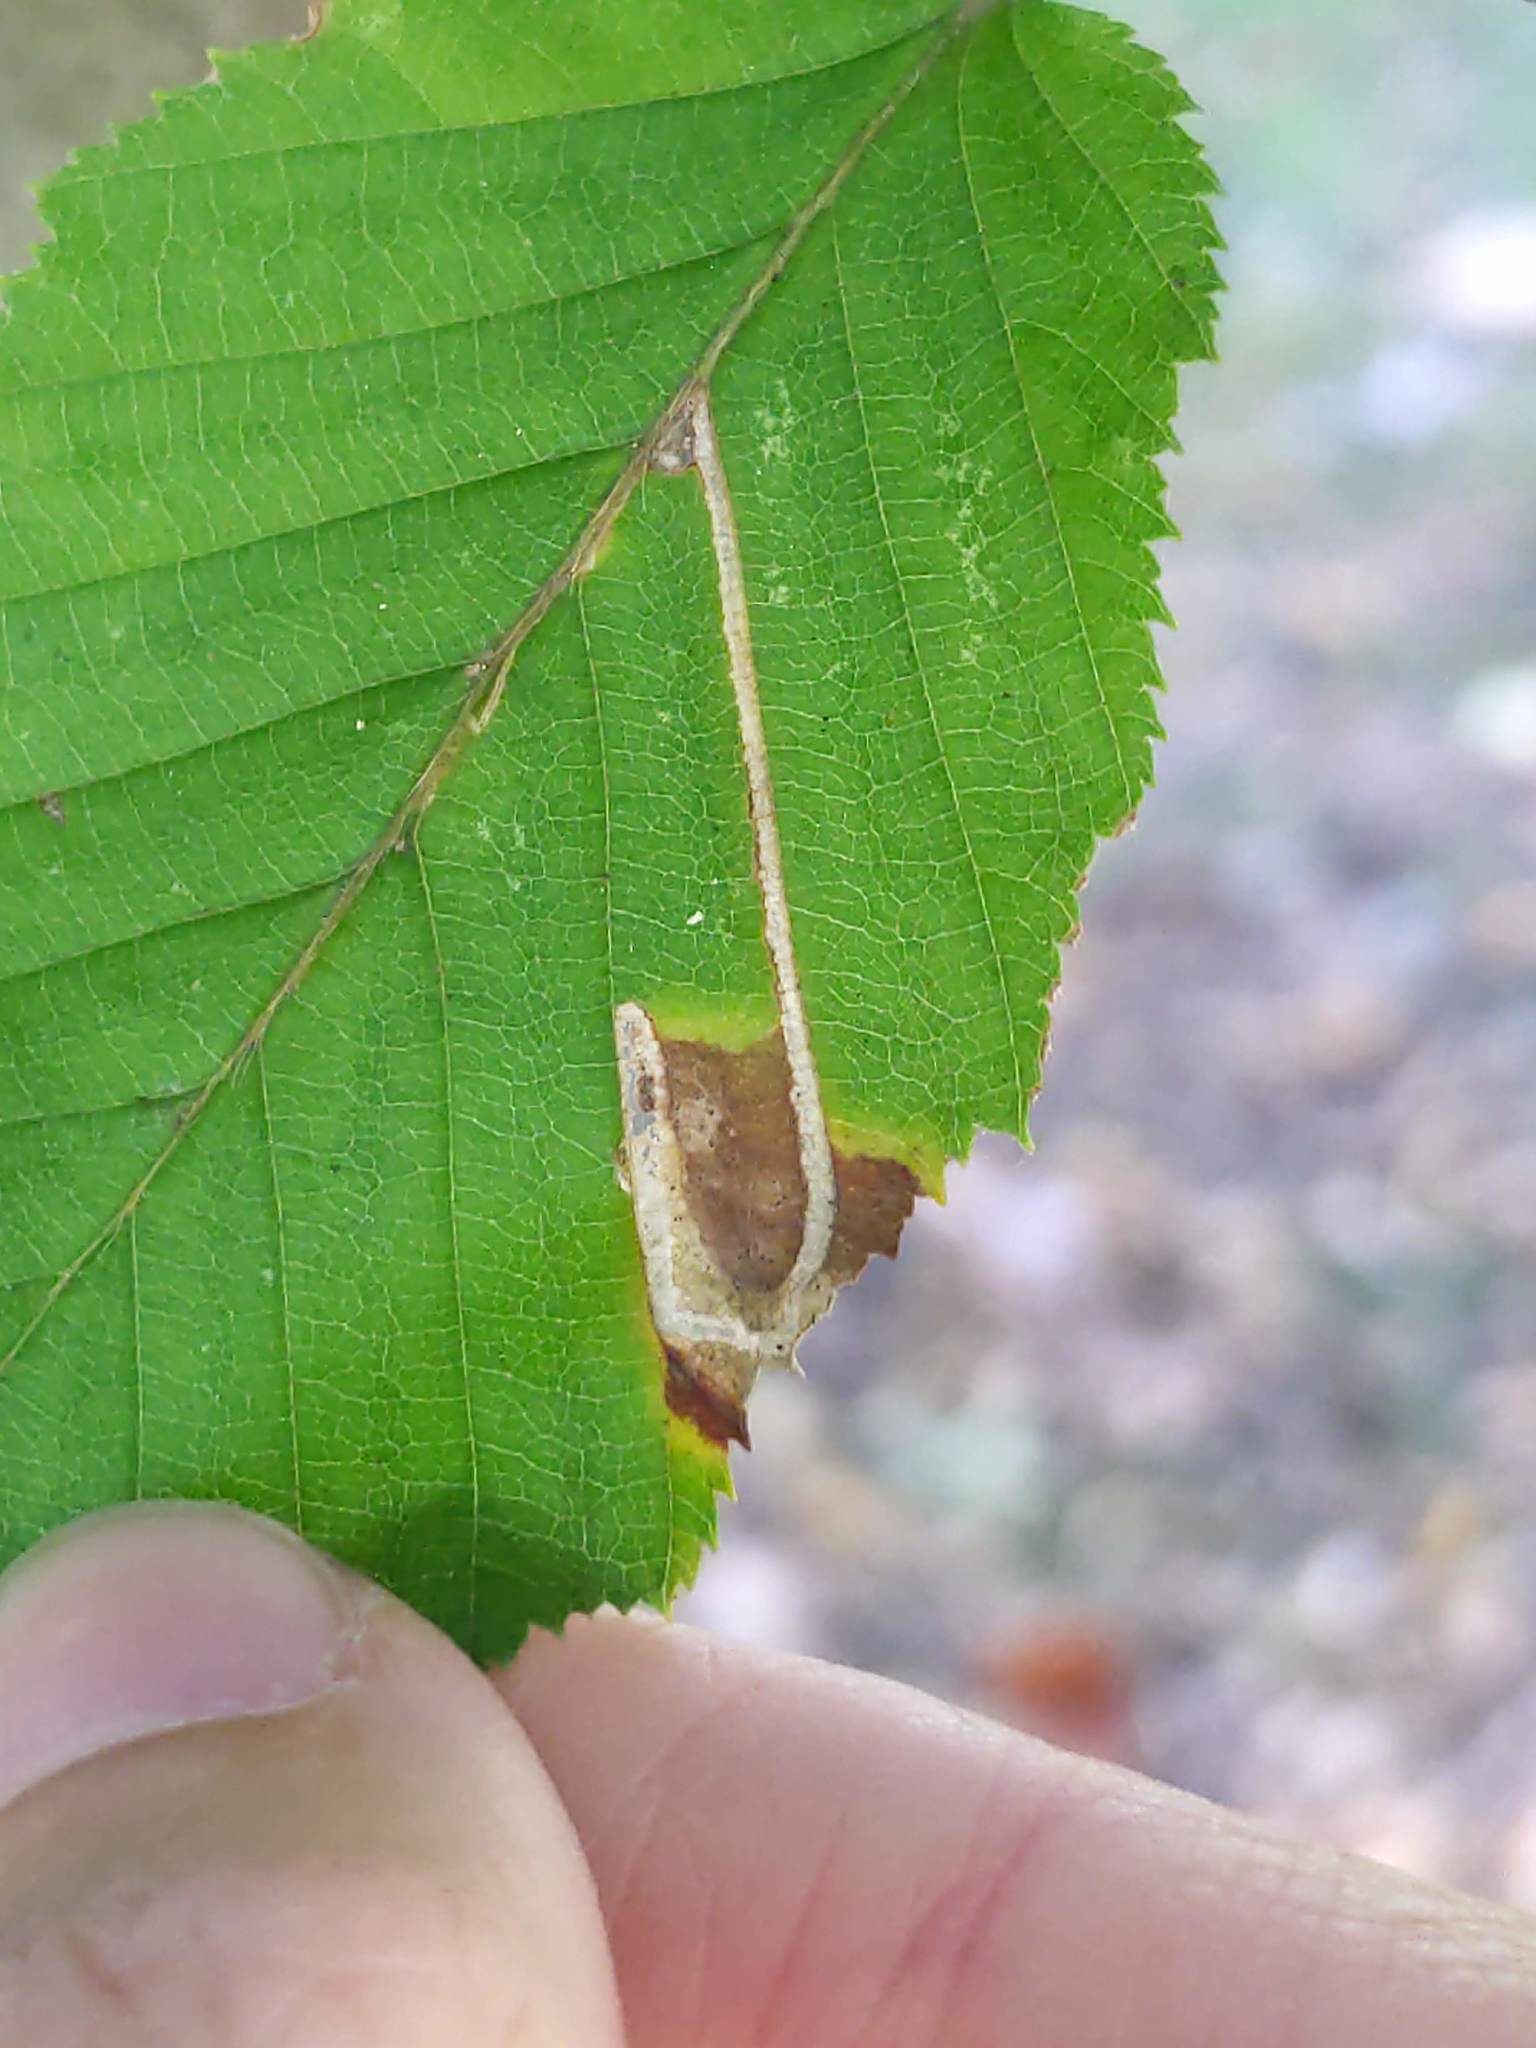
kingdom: Animalia
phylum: Arthropoda
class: Insecta
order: Lepidoptera
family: Nepticulidae
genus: Stigmella
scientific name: Stigmella betulicola
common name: Common birch pigmy
